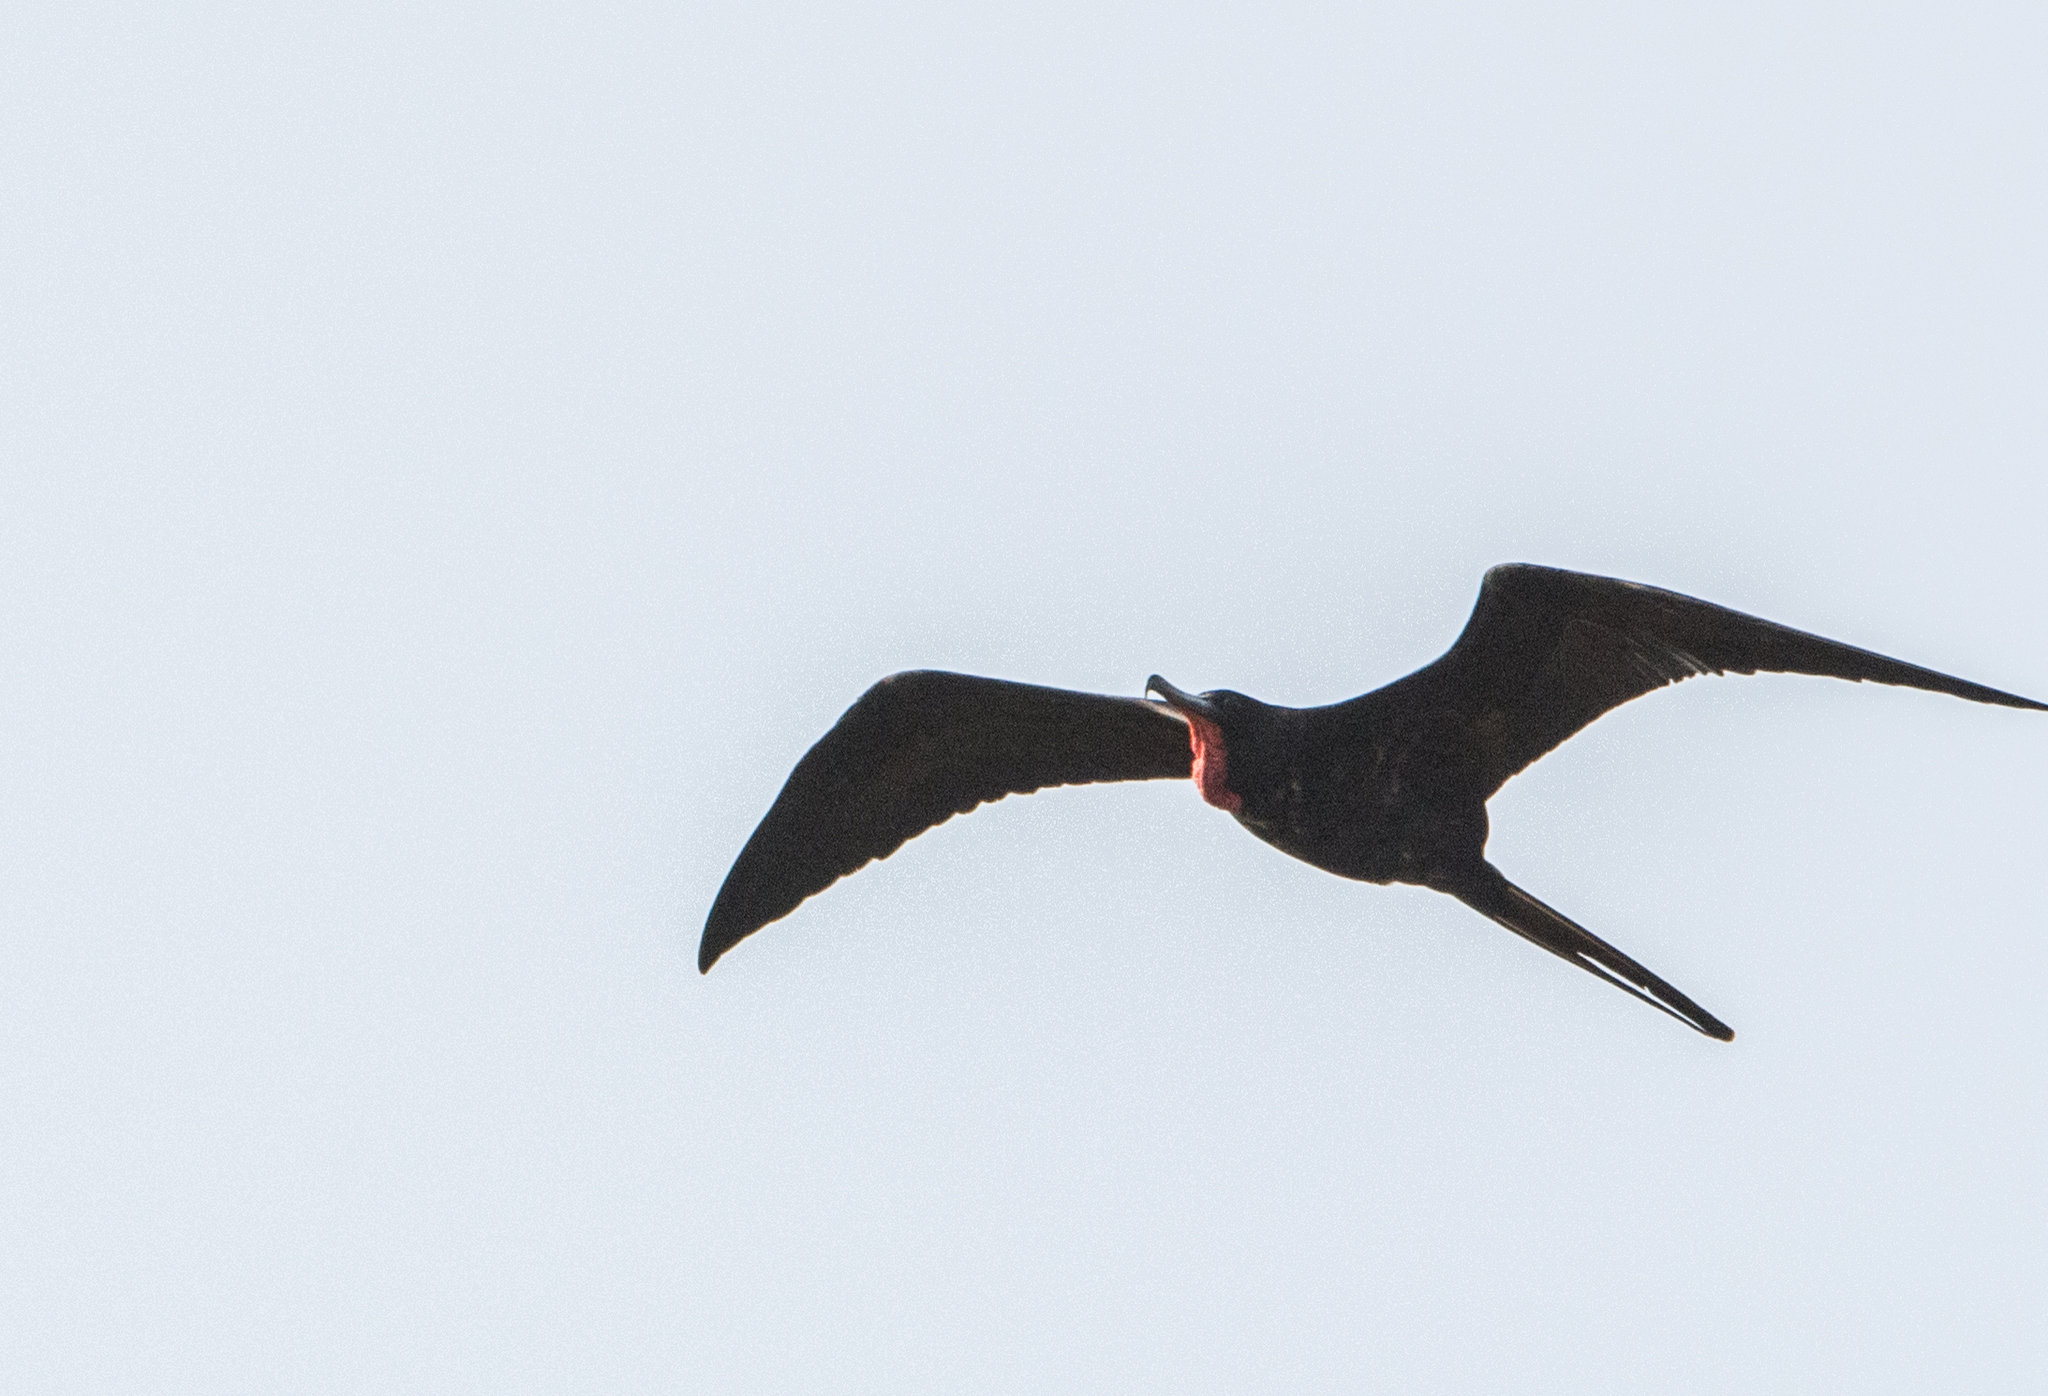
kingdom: Animalia
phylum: Chordata
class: Aves
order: Suliformes
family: Fregatidae
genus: Fregata
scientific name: Fregata magnificens
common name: Magnificent frigatebird
